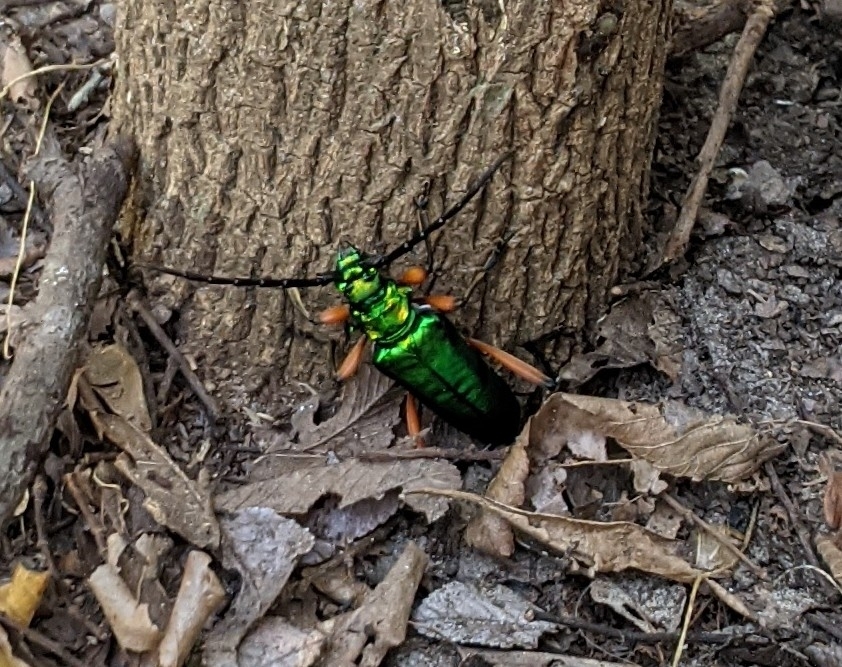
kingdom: Animalia
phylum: Arthropoda
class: Insecta
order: Coleoptera
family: Cerambycidae
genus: Plinthocoelium
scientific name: Plinthocoelium suaveolens
